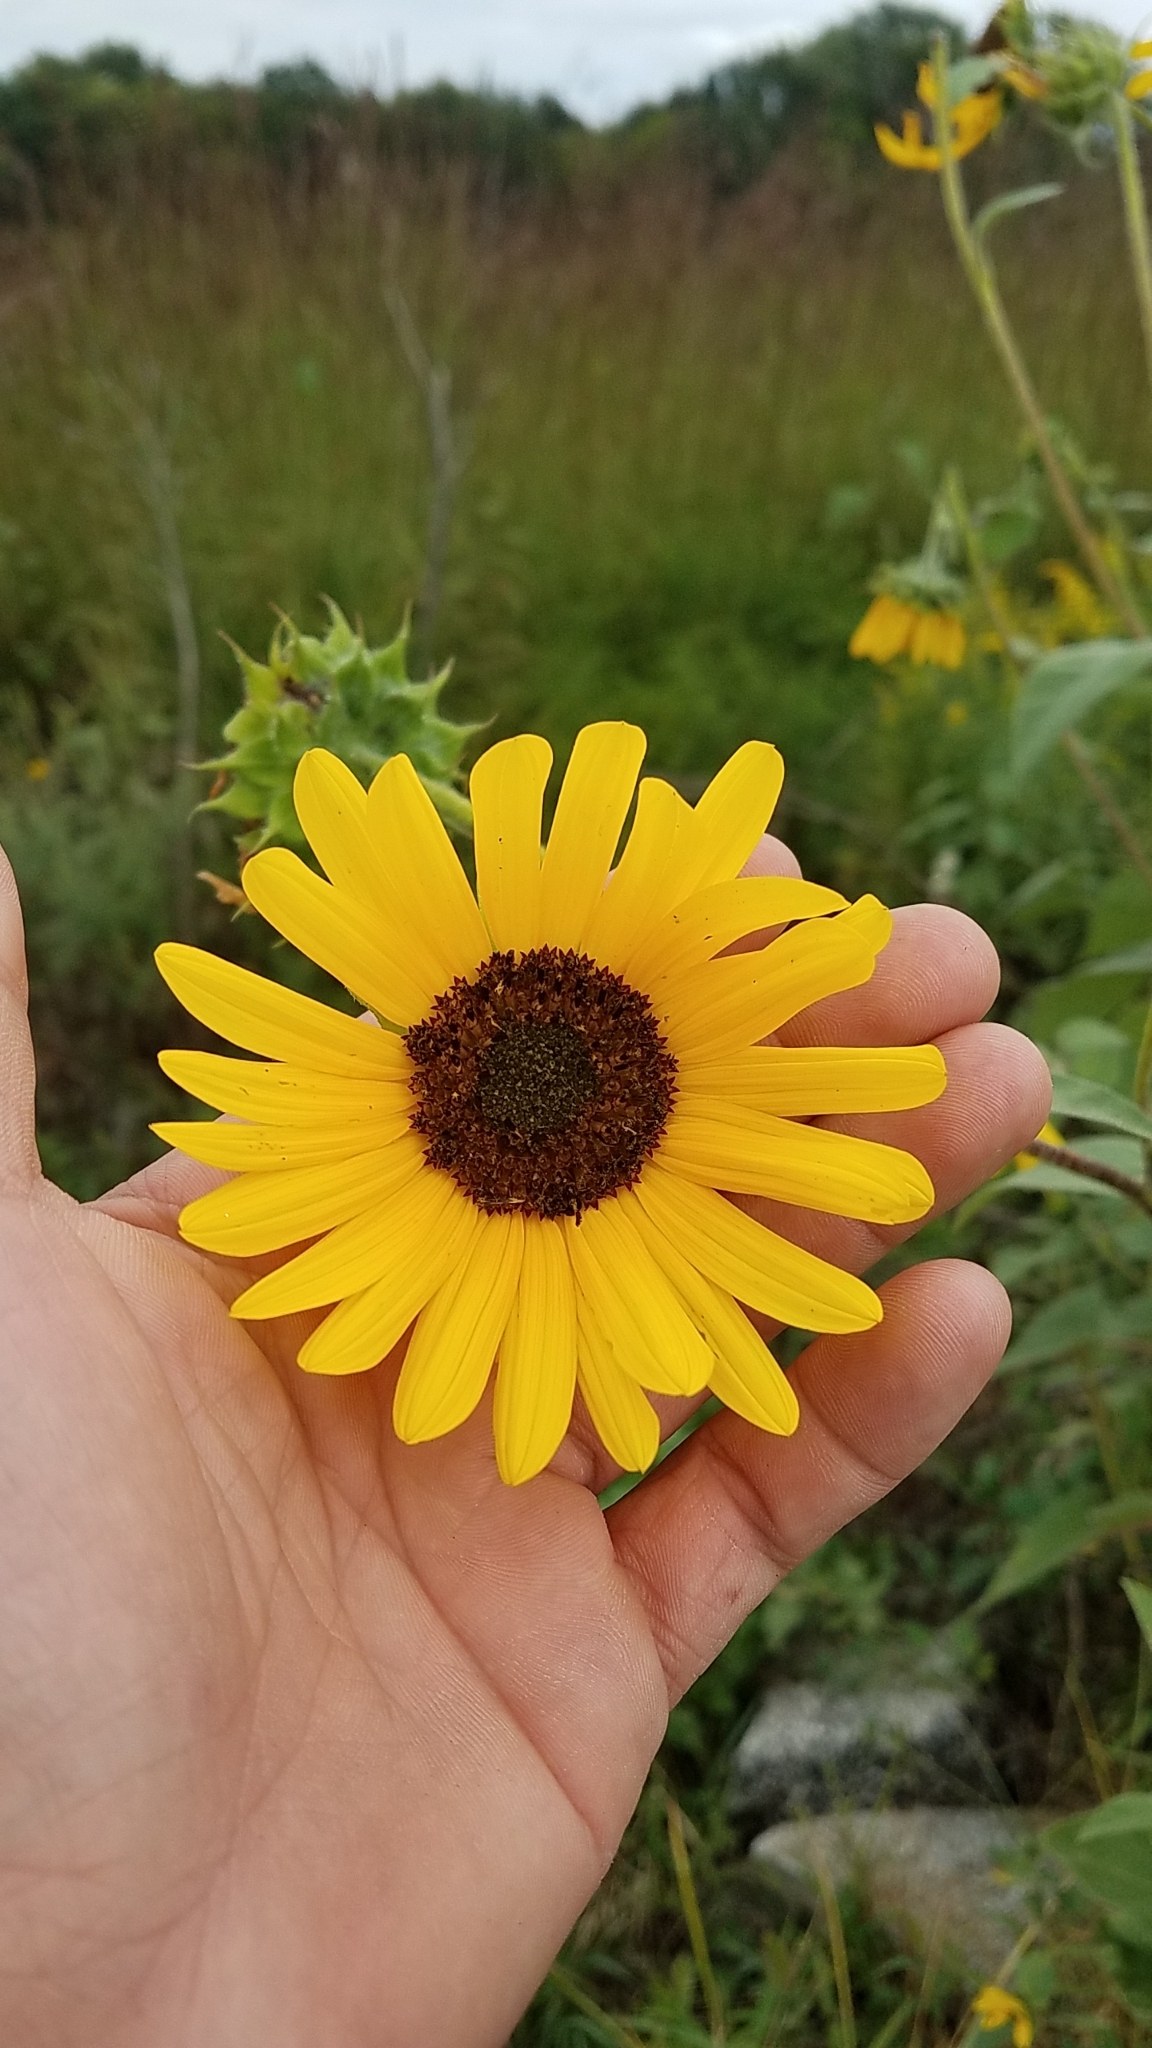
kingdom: Plantae
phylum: Tracheophyta
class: Magnoliopsida
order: Asterales
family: Asteraceae
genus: Helianthus
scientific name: Helianthus annuus
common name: Sunflower
